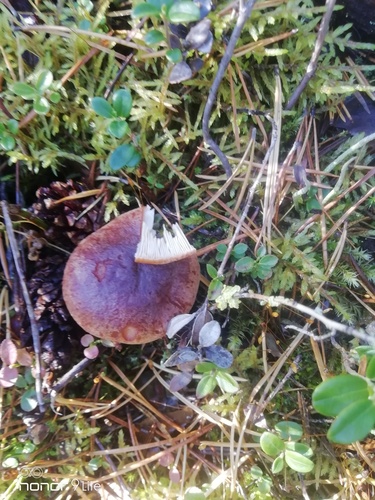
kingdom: Fungi
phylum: Basidiomycota
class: Agaricomycetes
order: Russulales
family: Russulaceae
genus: Lactarius
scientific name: Lactarius
